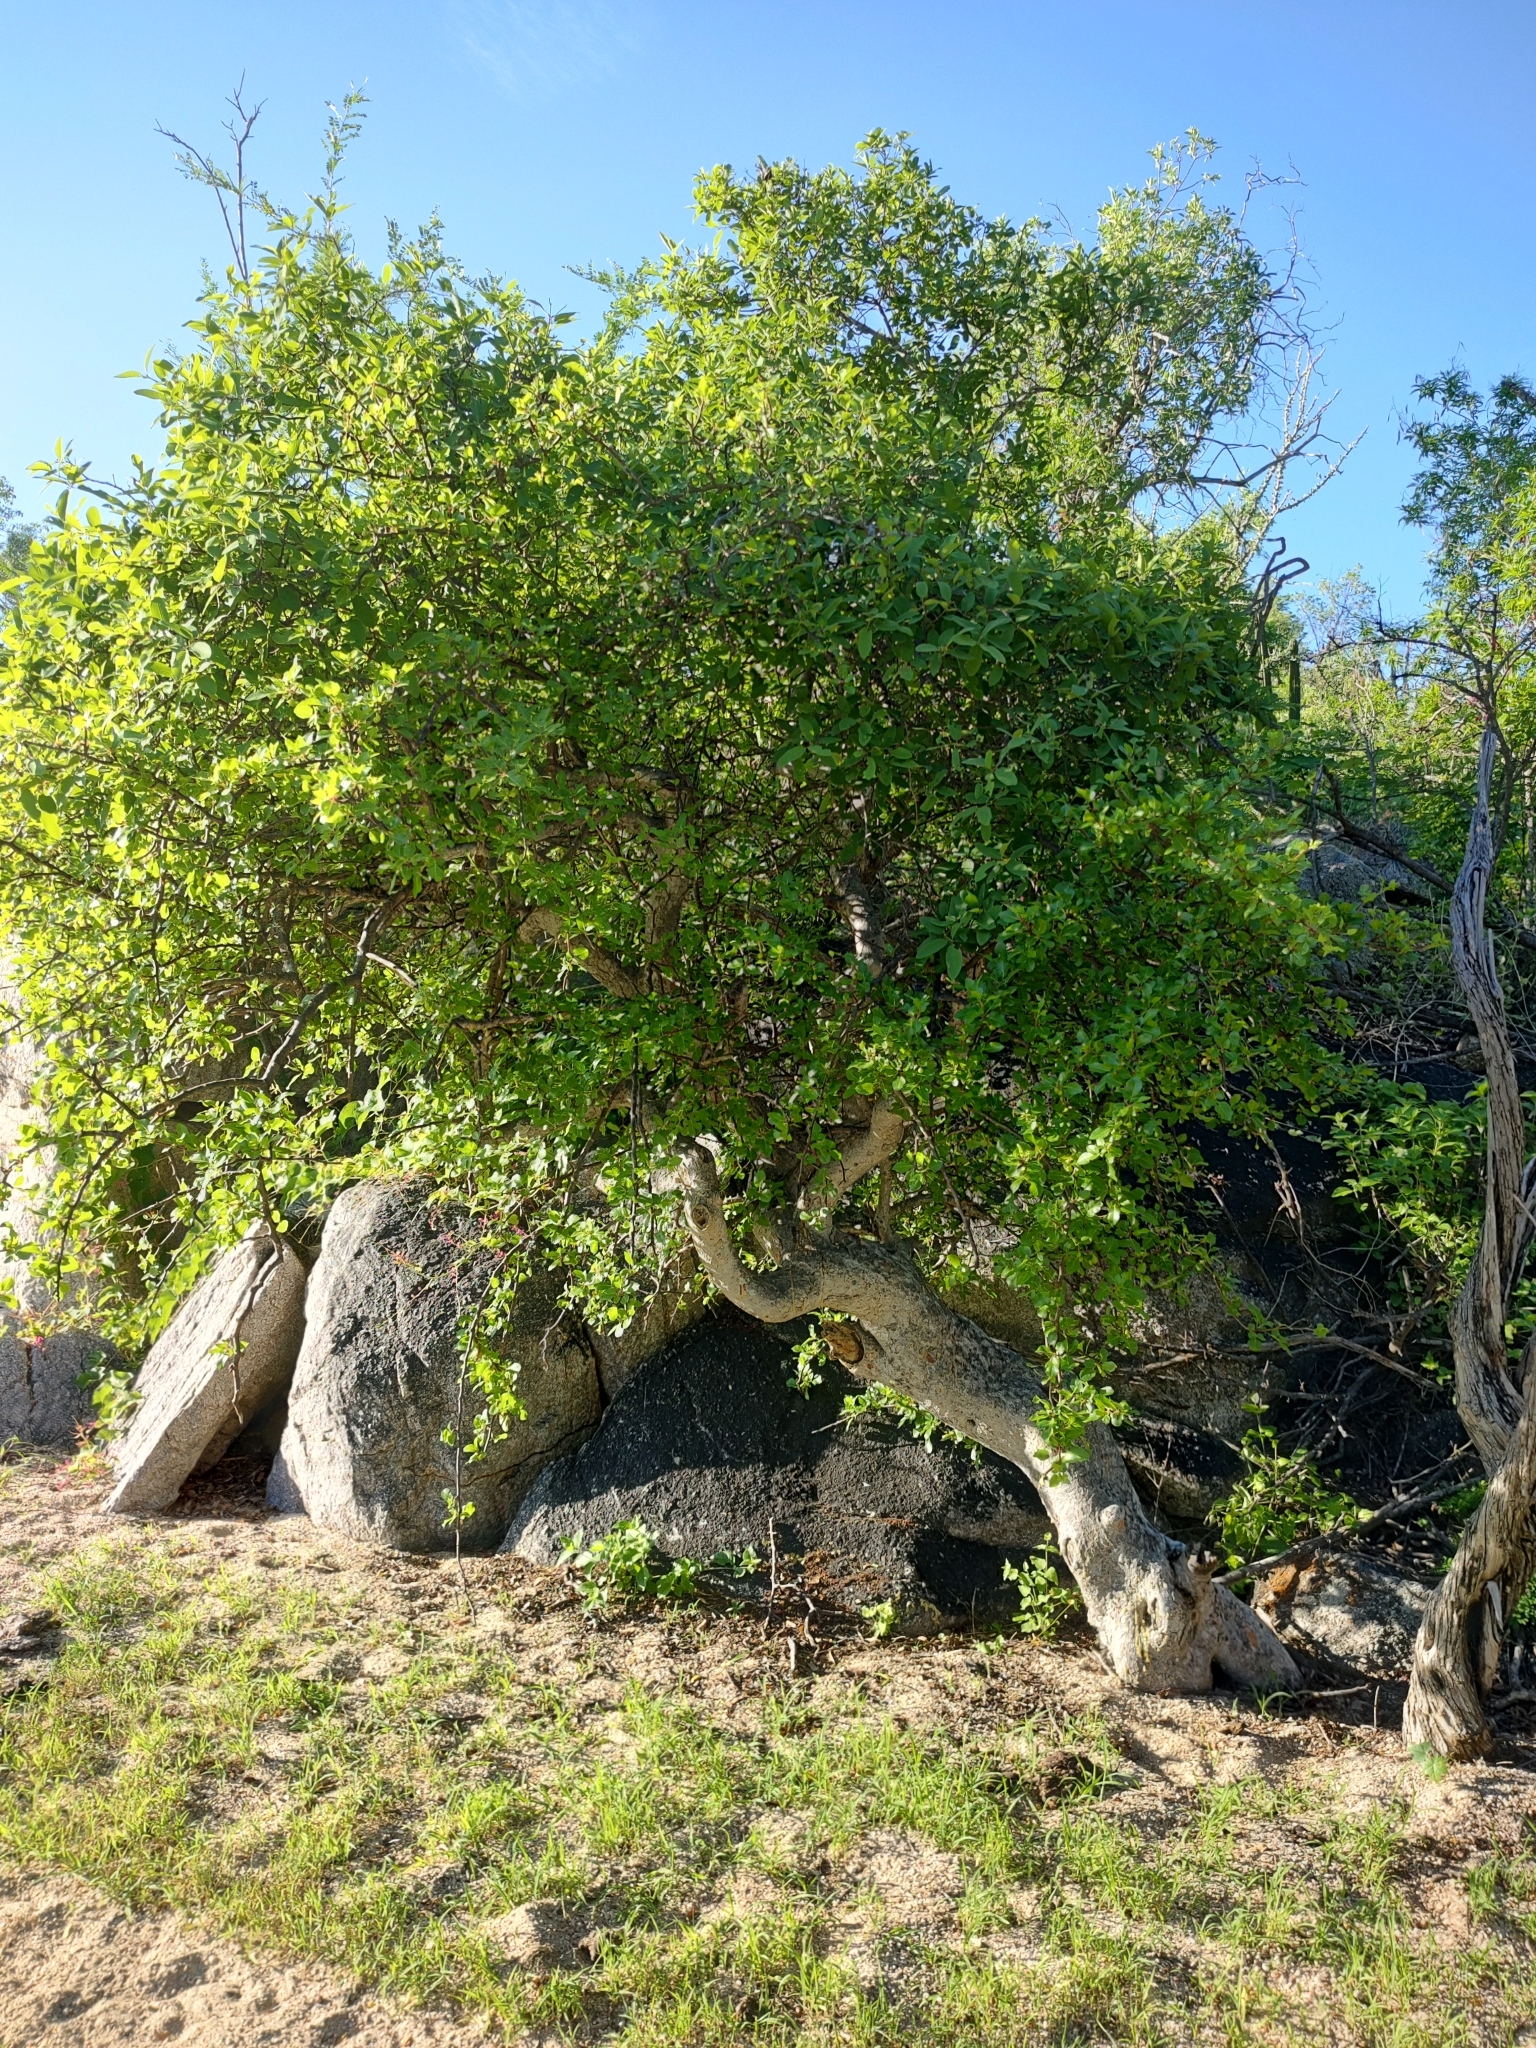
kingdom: Plantae
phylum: Tracheophyta
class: Magnoliopsida
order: Sapindales
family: Burseraceae
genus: Bursera
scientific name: Bursera rupicola
